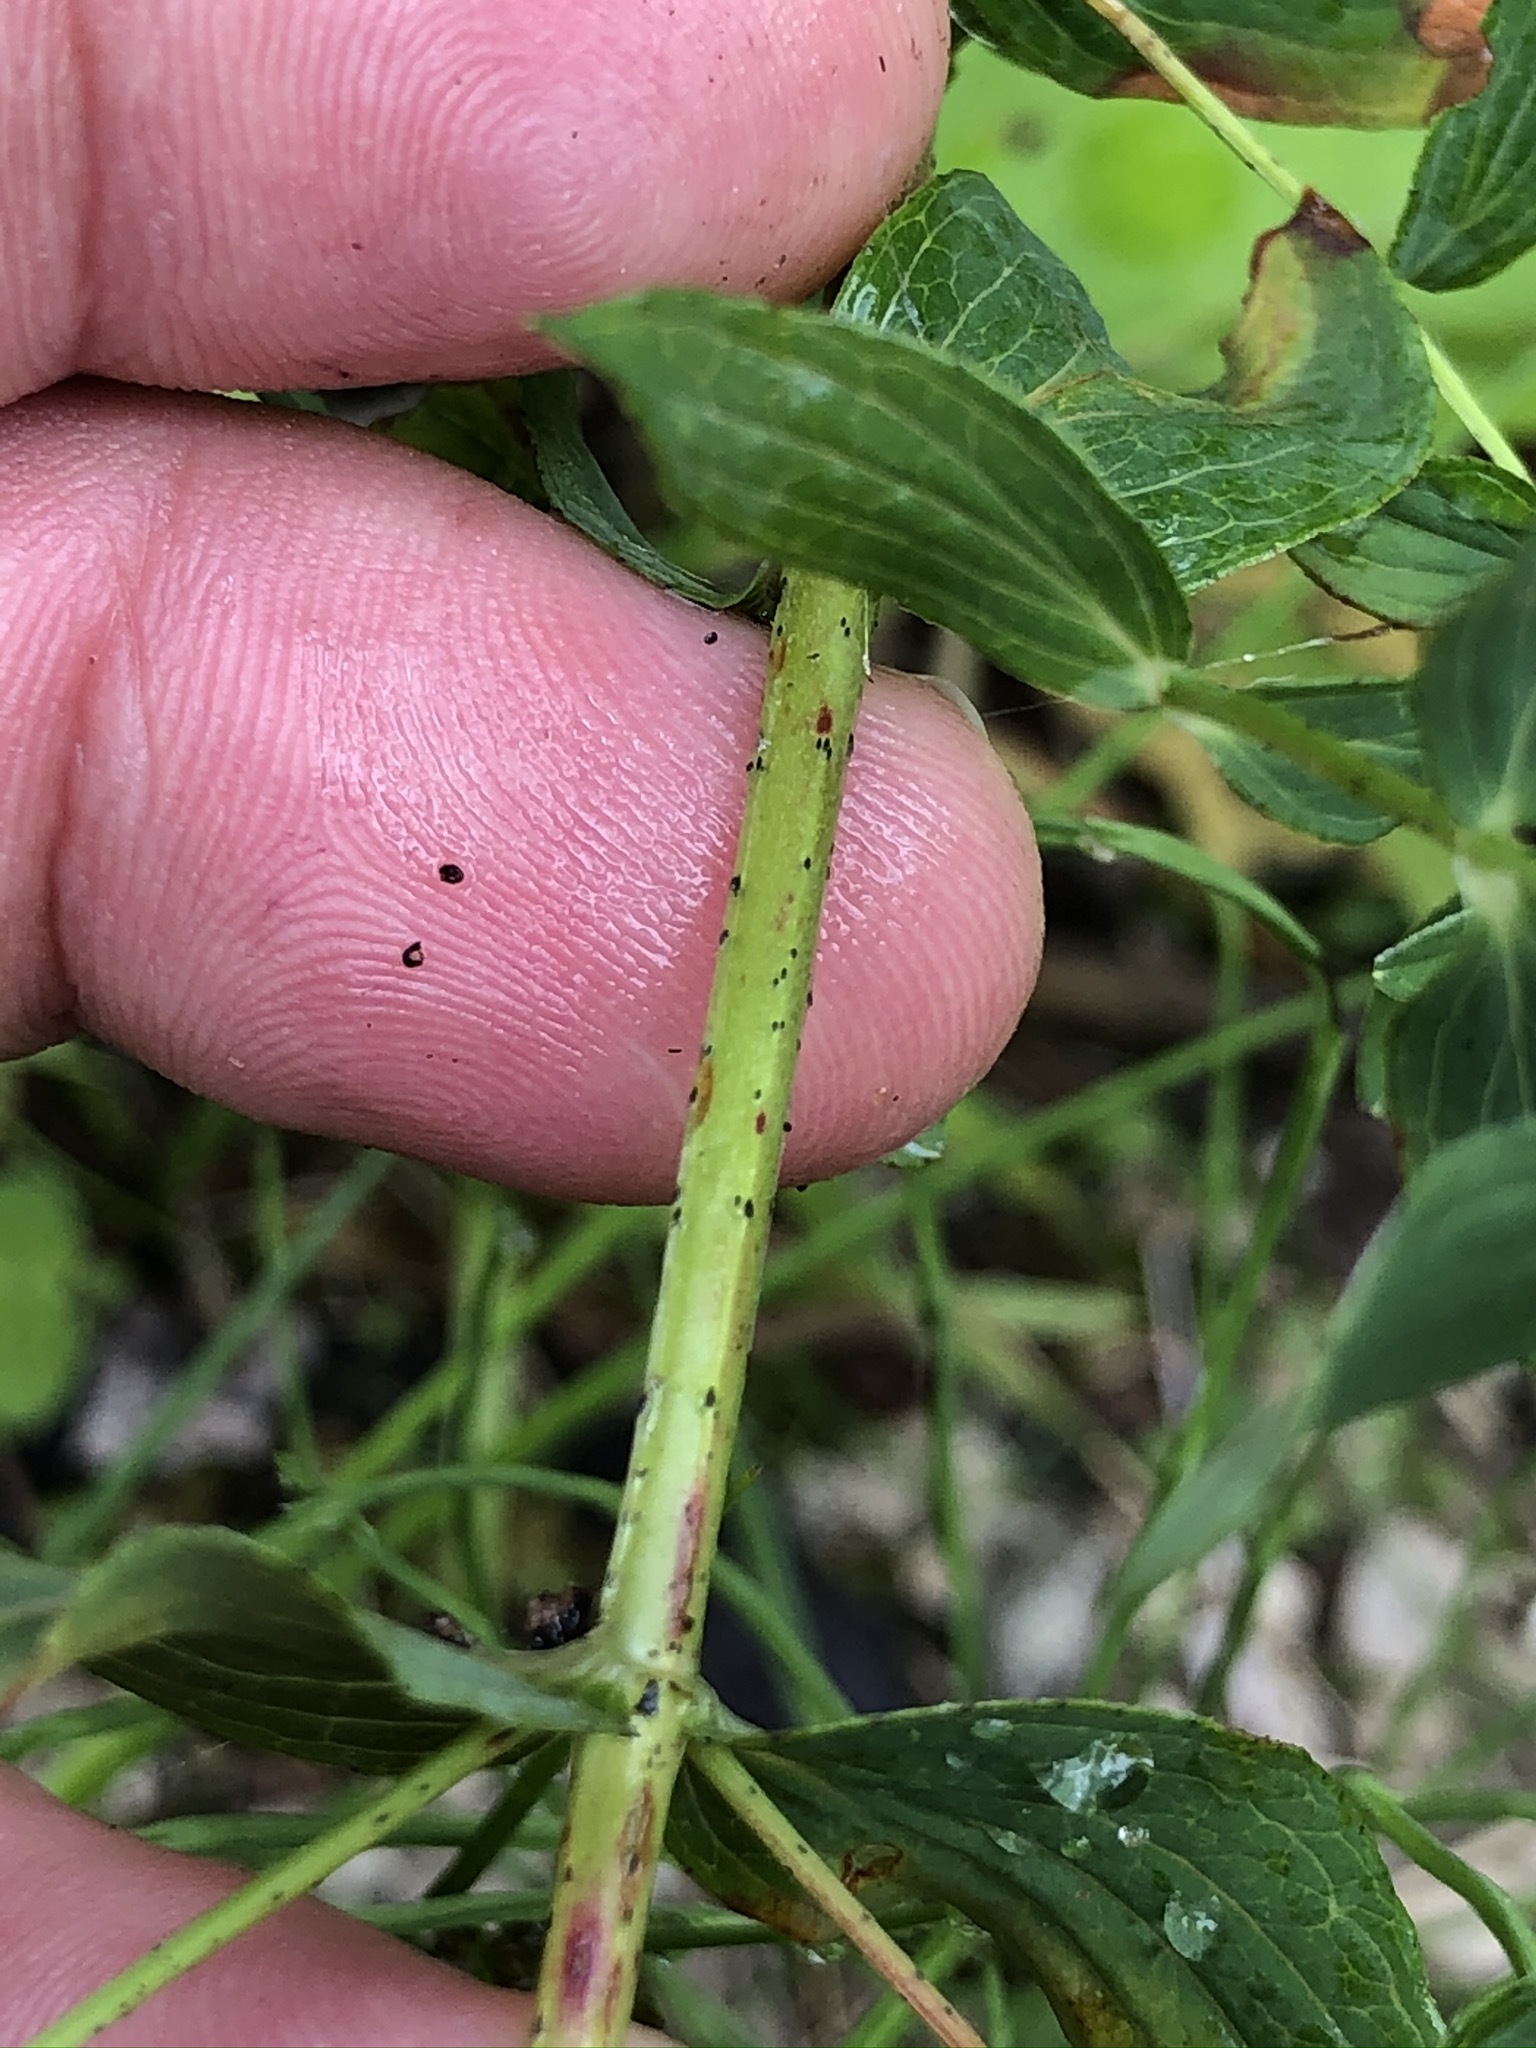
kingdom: Plantae
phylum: Tracheophyta
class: Magnoliopsida
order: Malpighiales
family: Hypericaceae
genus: Hypericum
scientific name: Hypericum desetangsii
